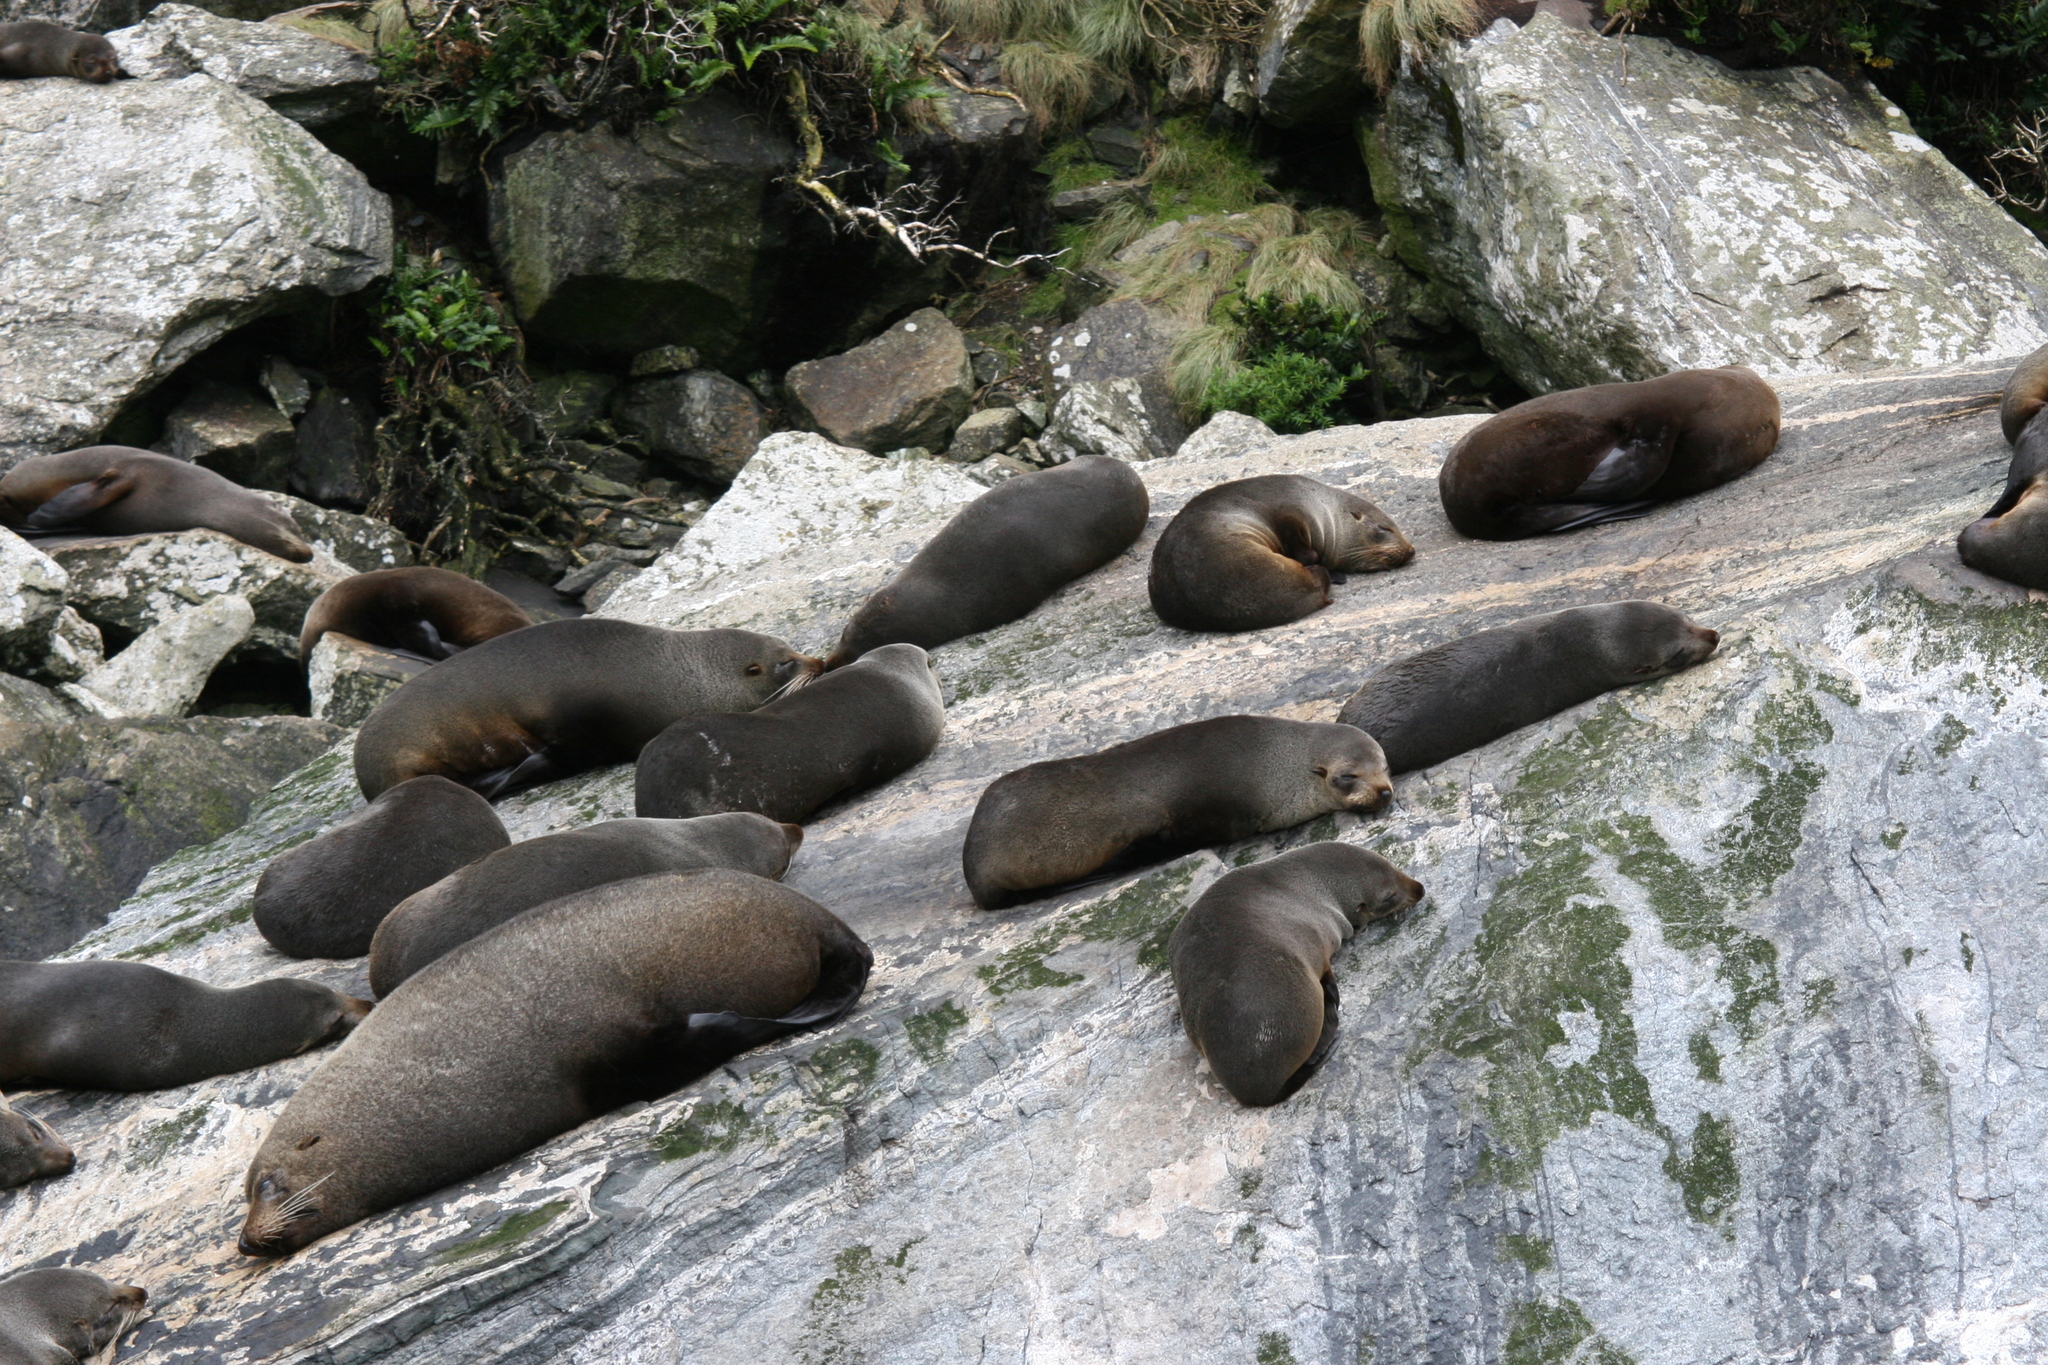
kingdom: Animalia
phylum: Chordata
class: Mammalia
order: Carnivora
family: Otariidae
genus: Arctocephalus
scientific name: Arctocephalus forsteri
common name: New zealand fur seal
